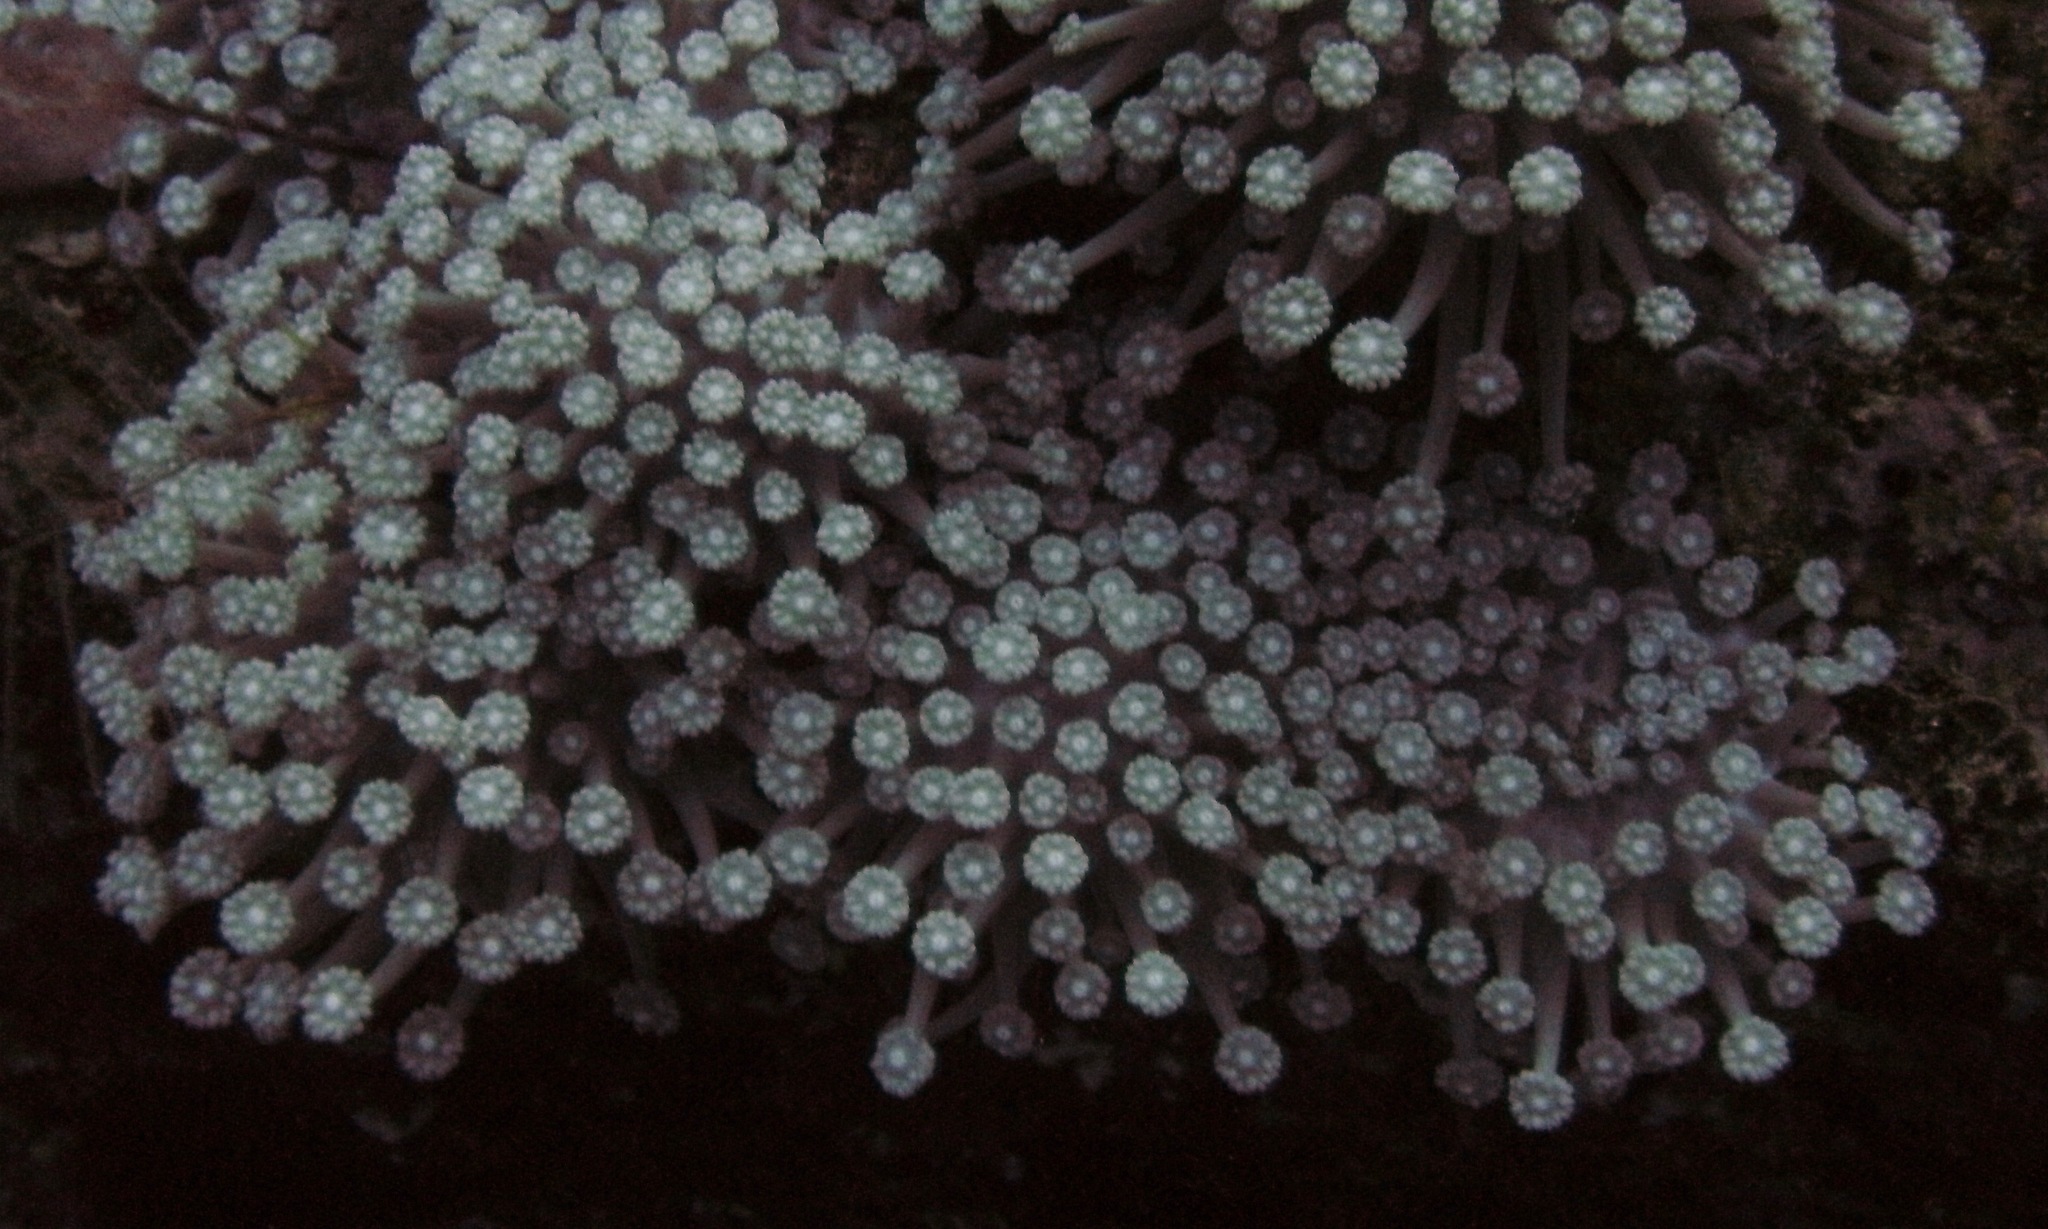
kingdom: Animalia
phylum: Cnidaria
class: Anthozoa
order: Scleractinia
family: Poritidae
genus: Goniopora
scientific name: Goniopora
